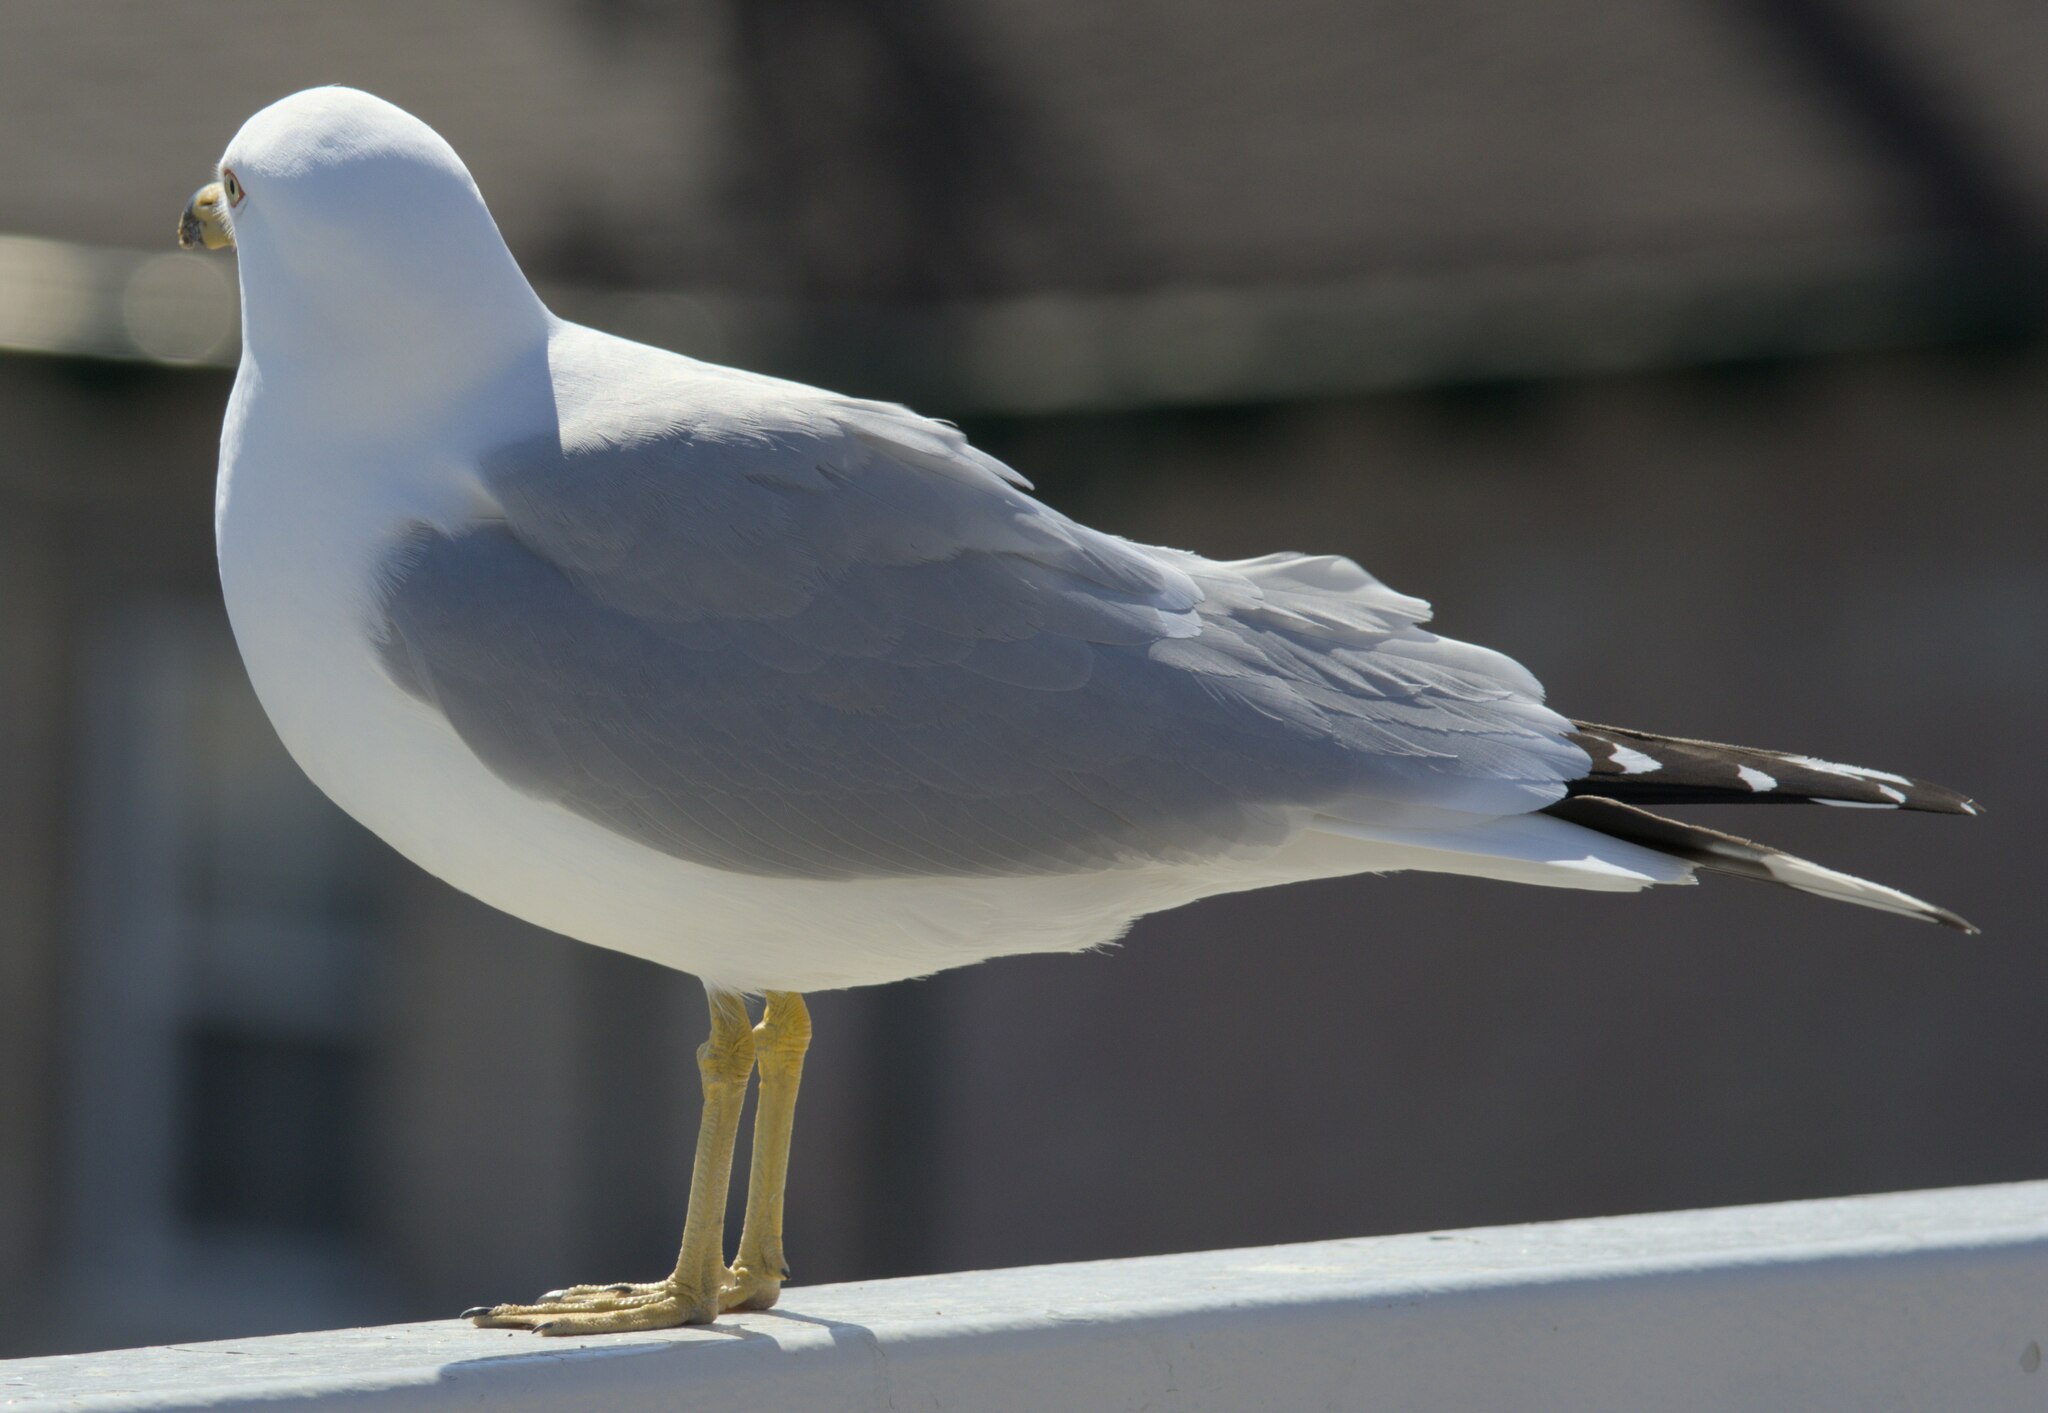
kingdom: Animalia
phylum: Chordata
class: Aves
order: Charadriiformes
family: Laridae
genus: Larus
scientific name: Larus delawarensis
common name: Ring-billed gull
